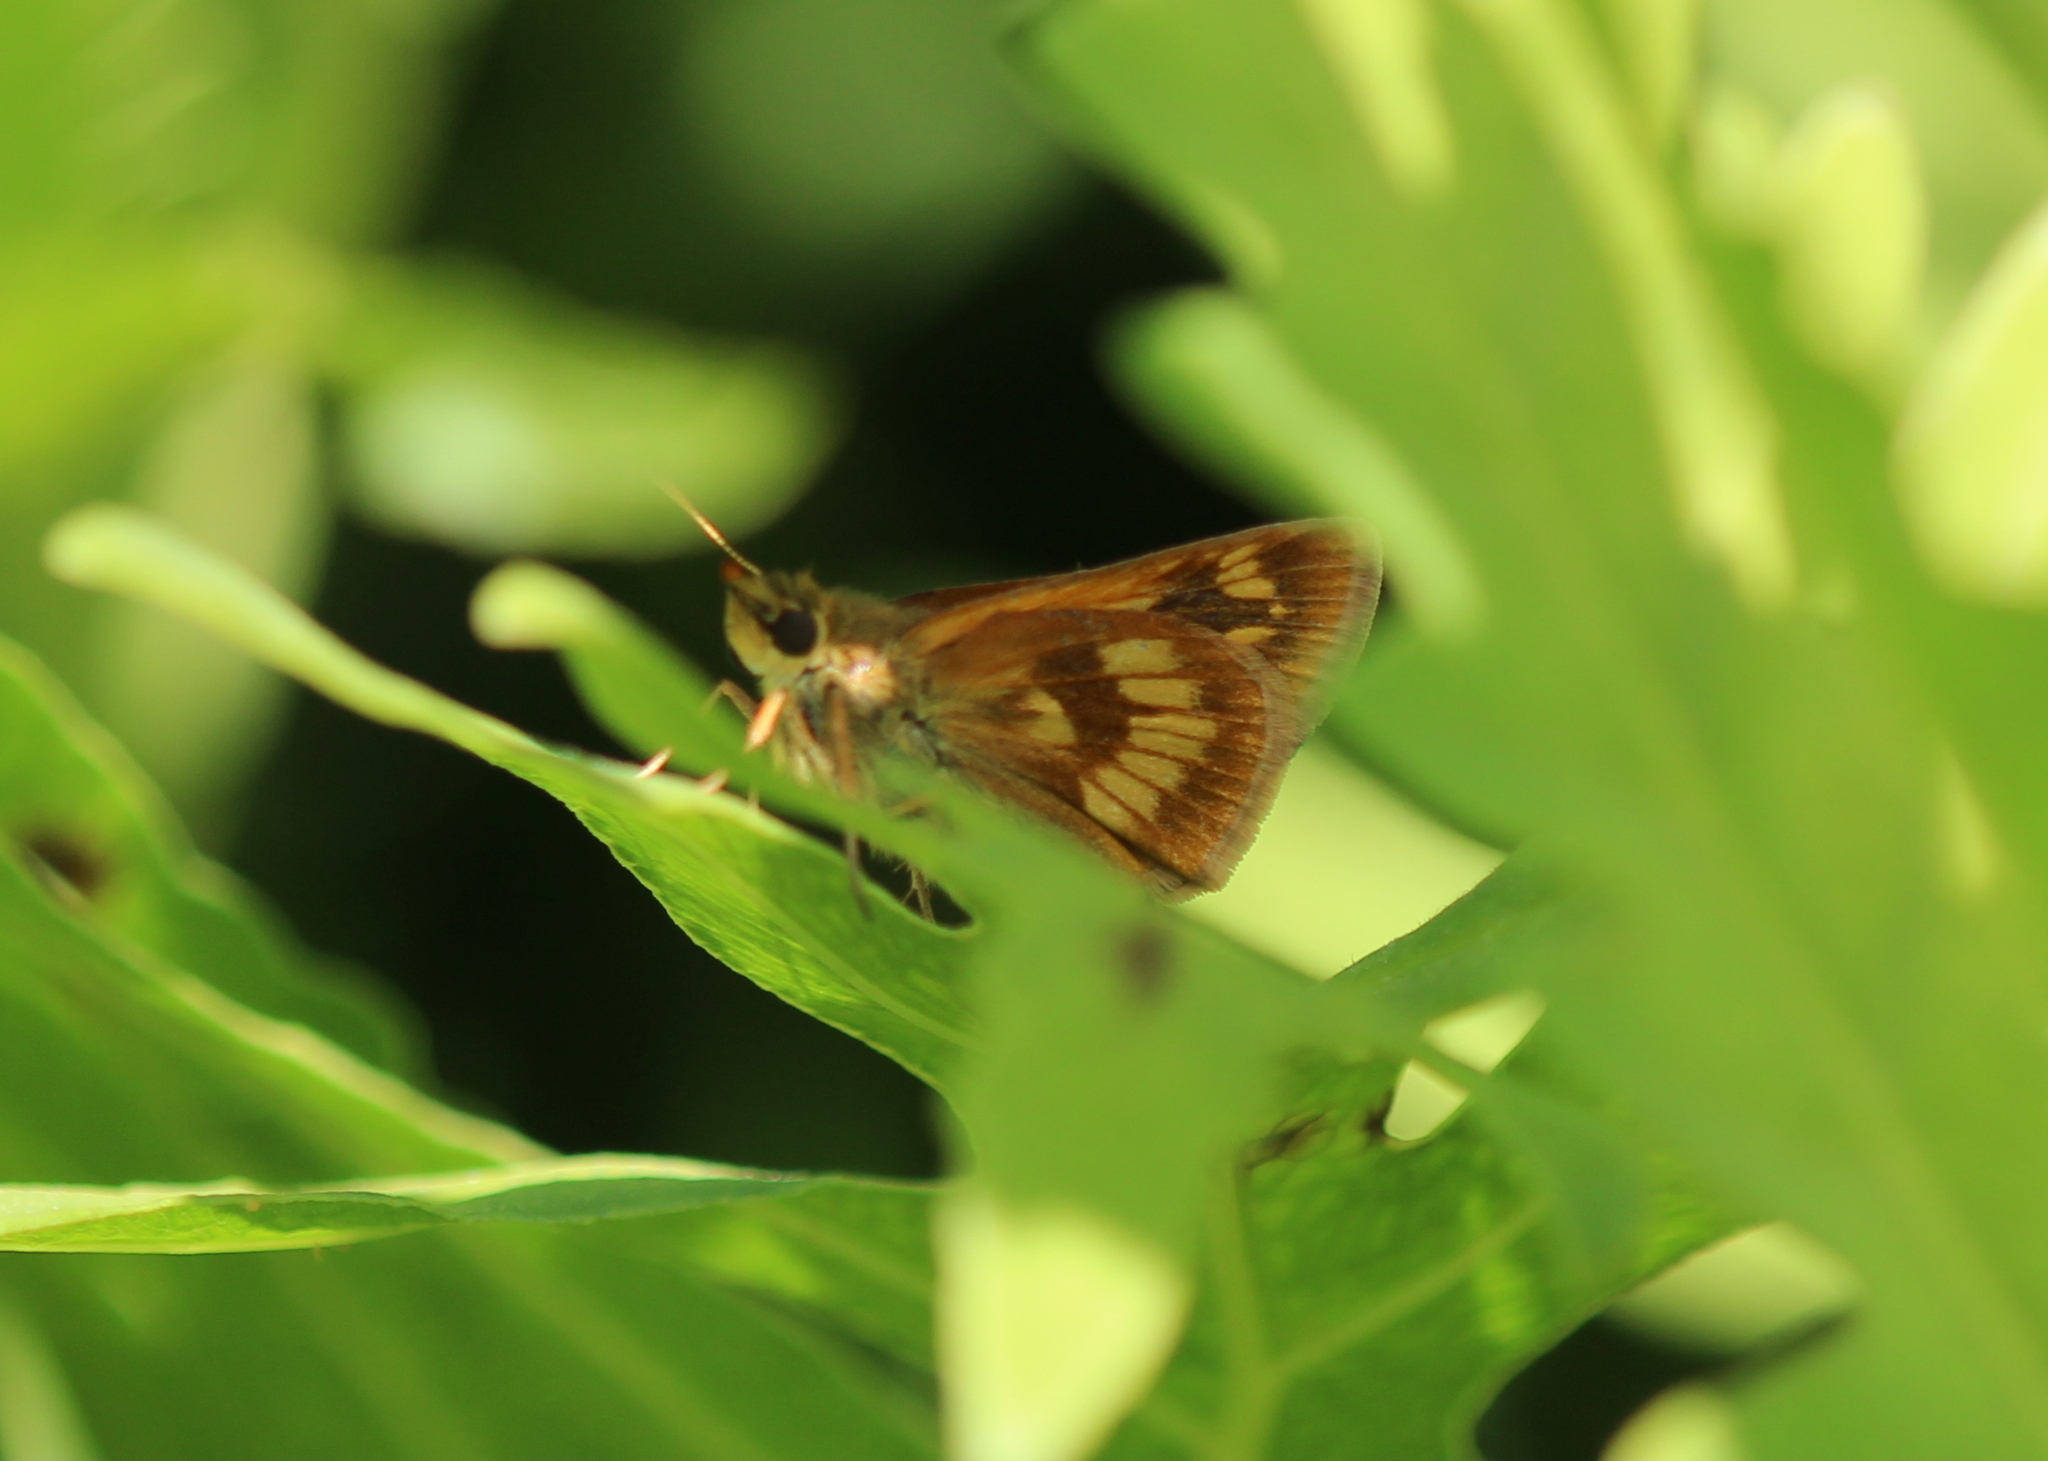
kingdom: Animalia
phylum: Arthropoda
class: Insecta
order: Lepidoptera
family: Hesperiidae
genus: Polites
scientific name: Polites mystic
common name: Long dash
